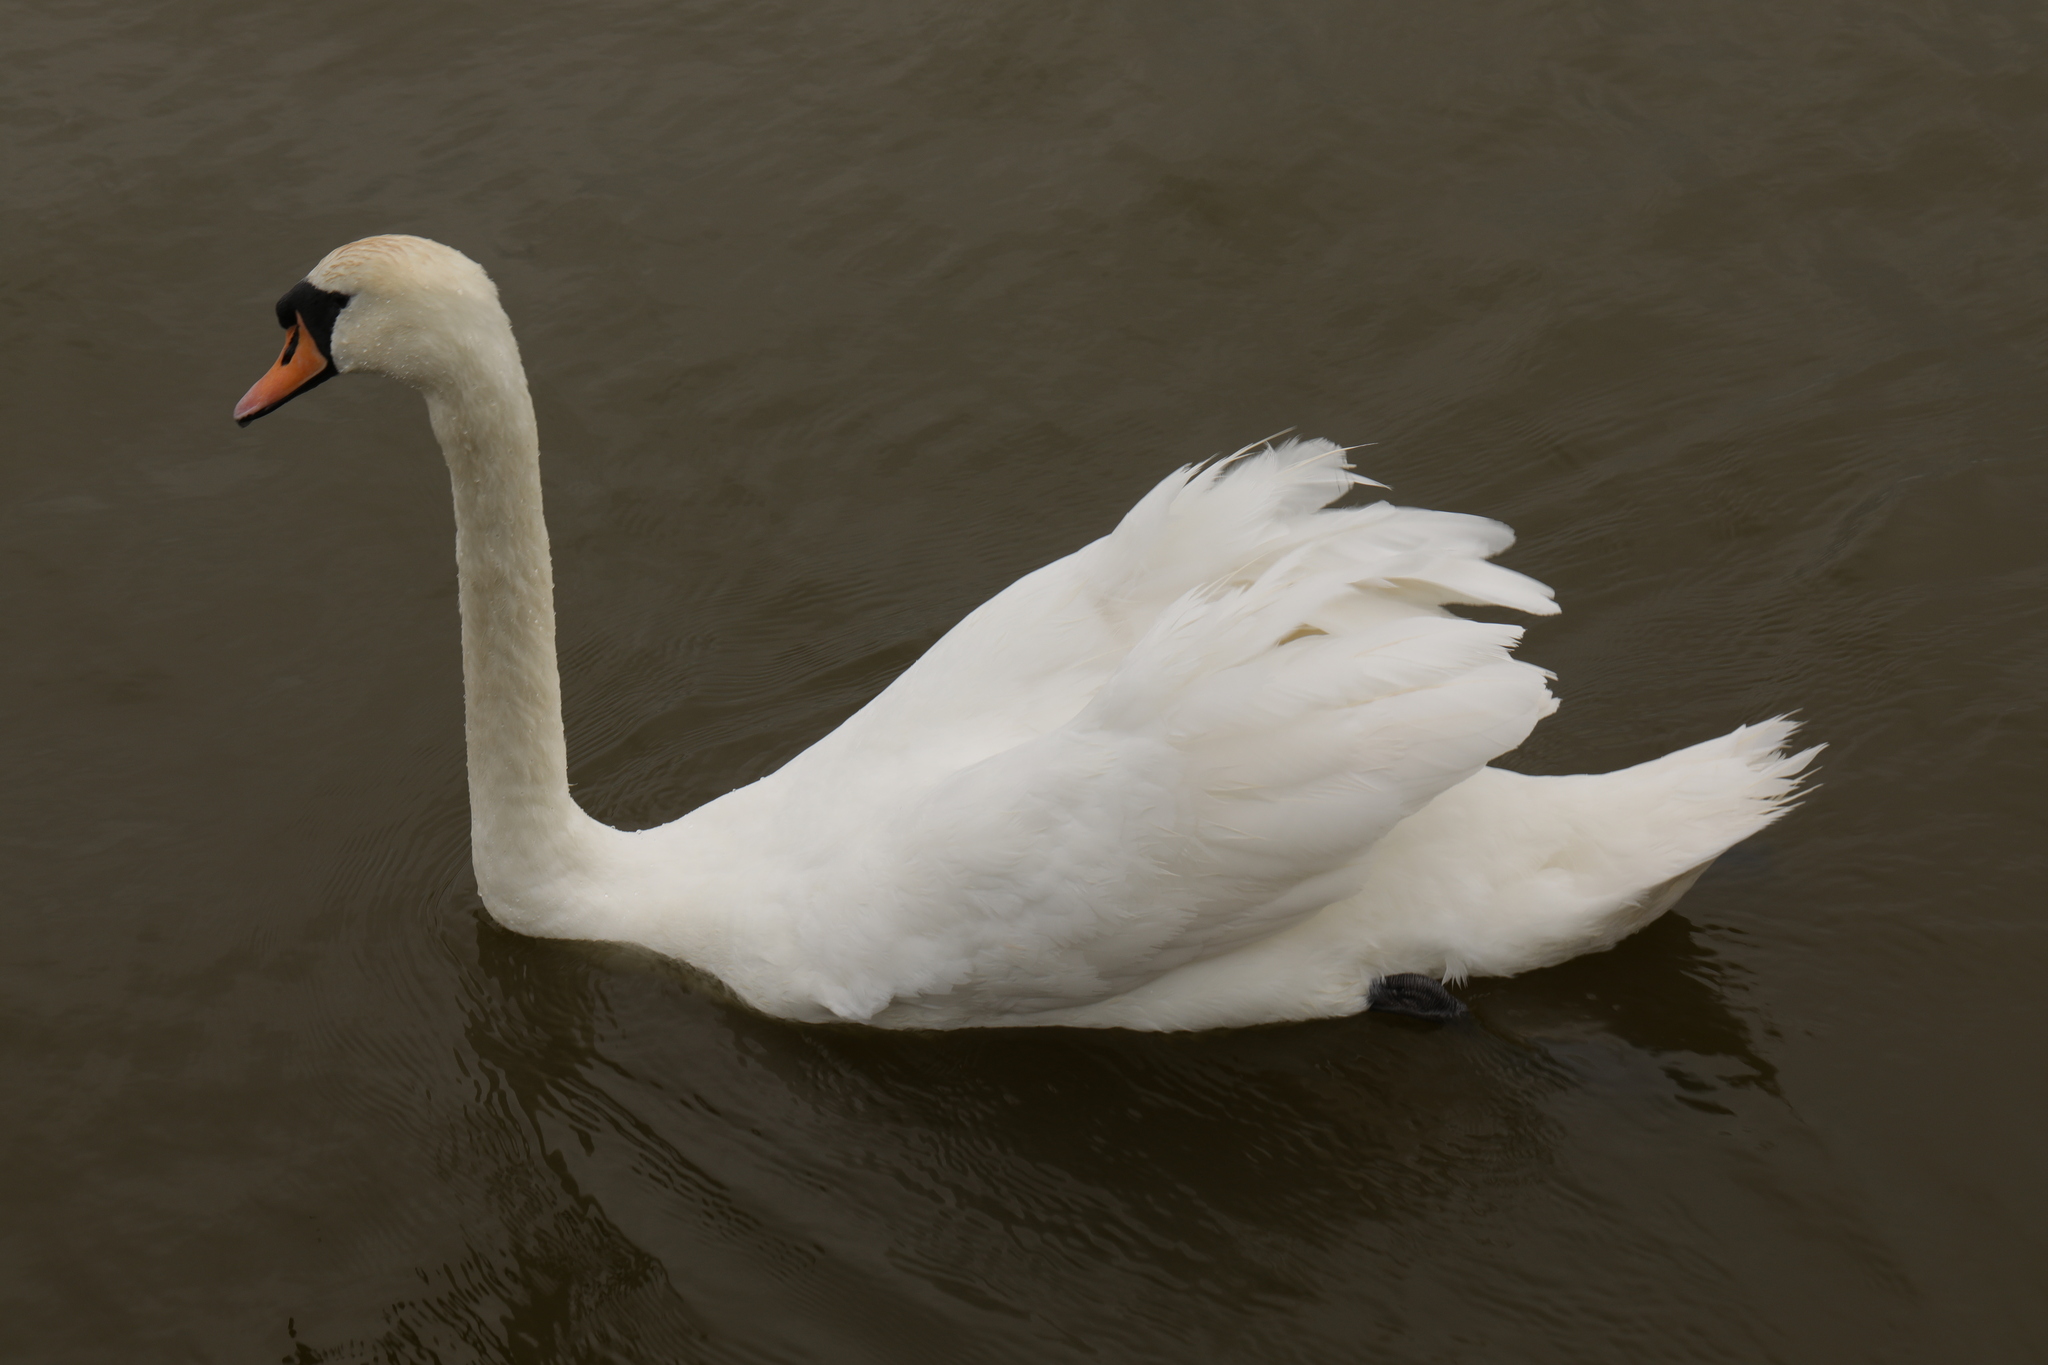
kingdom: Animalia
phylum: Chordata
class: Aves
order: Anseriformes
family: Anatidae
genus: Cygnus
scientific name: Cygnus olor
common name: Mute swan
